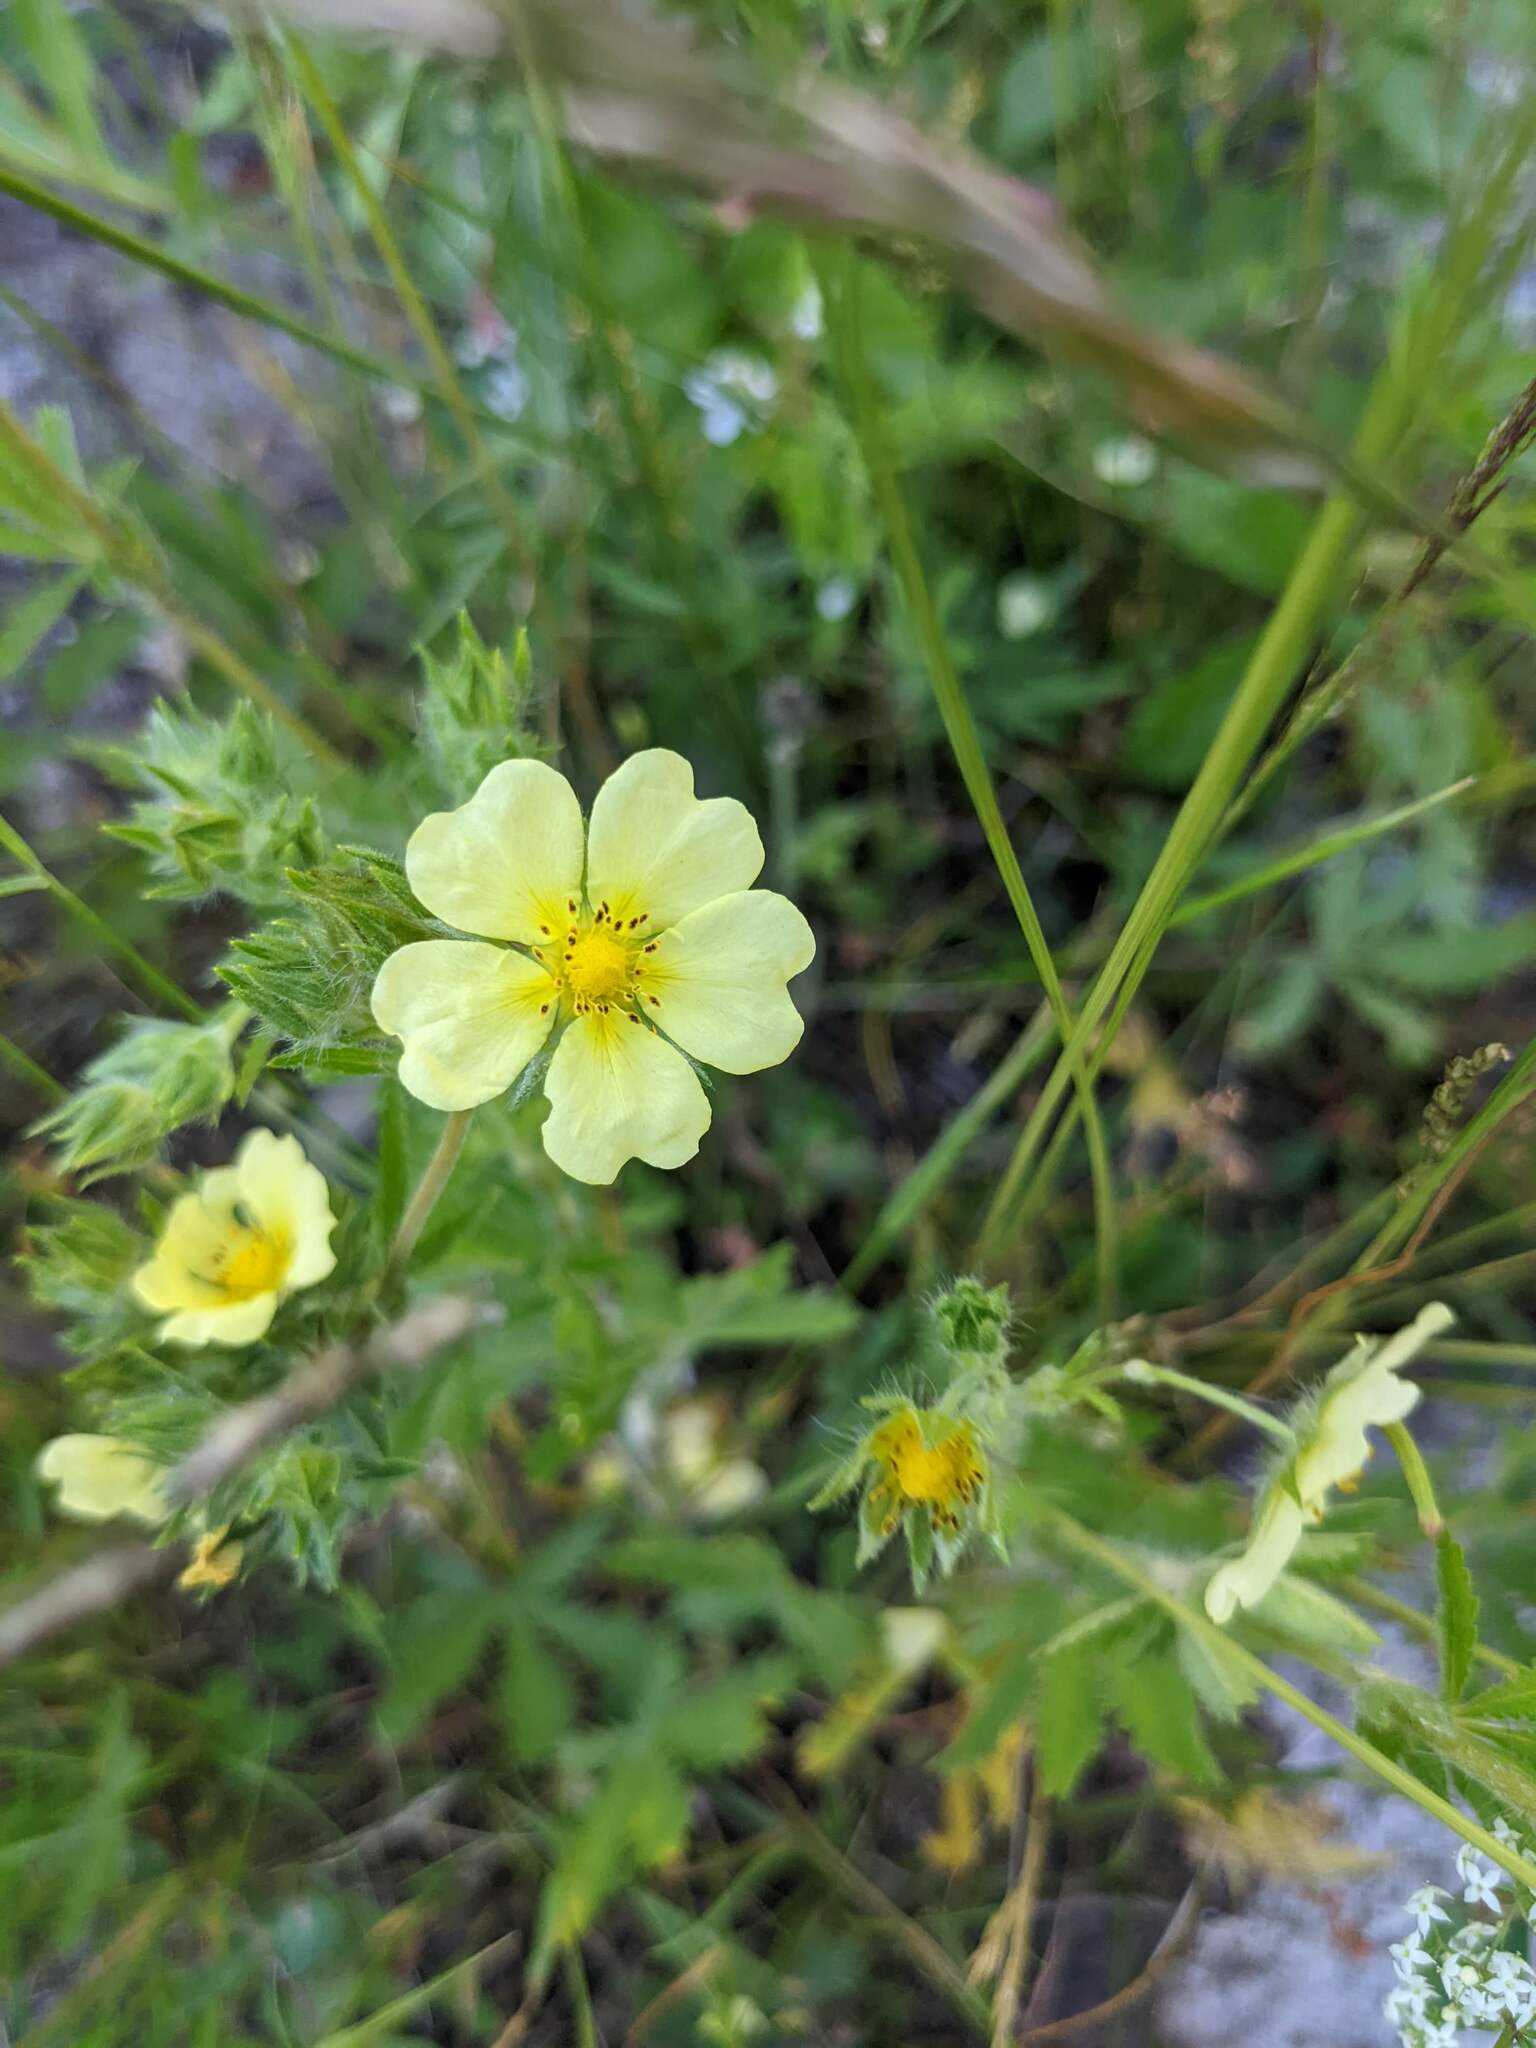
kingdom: Plantae
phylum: Tracheophyta
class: Magnoliopsida
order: Rosales
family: Rosaceae
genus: Potentilla
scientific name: Potentilla recta
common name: Sulphur cinquefoil
